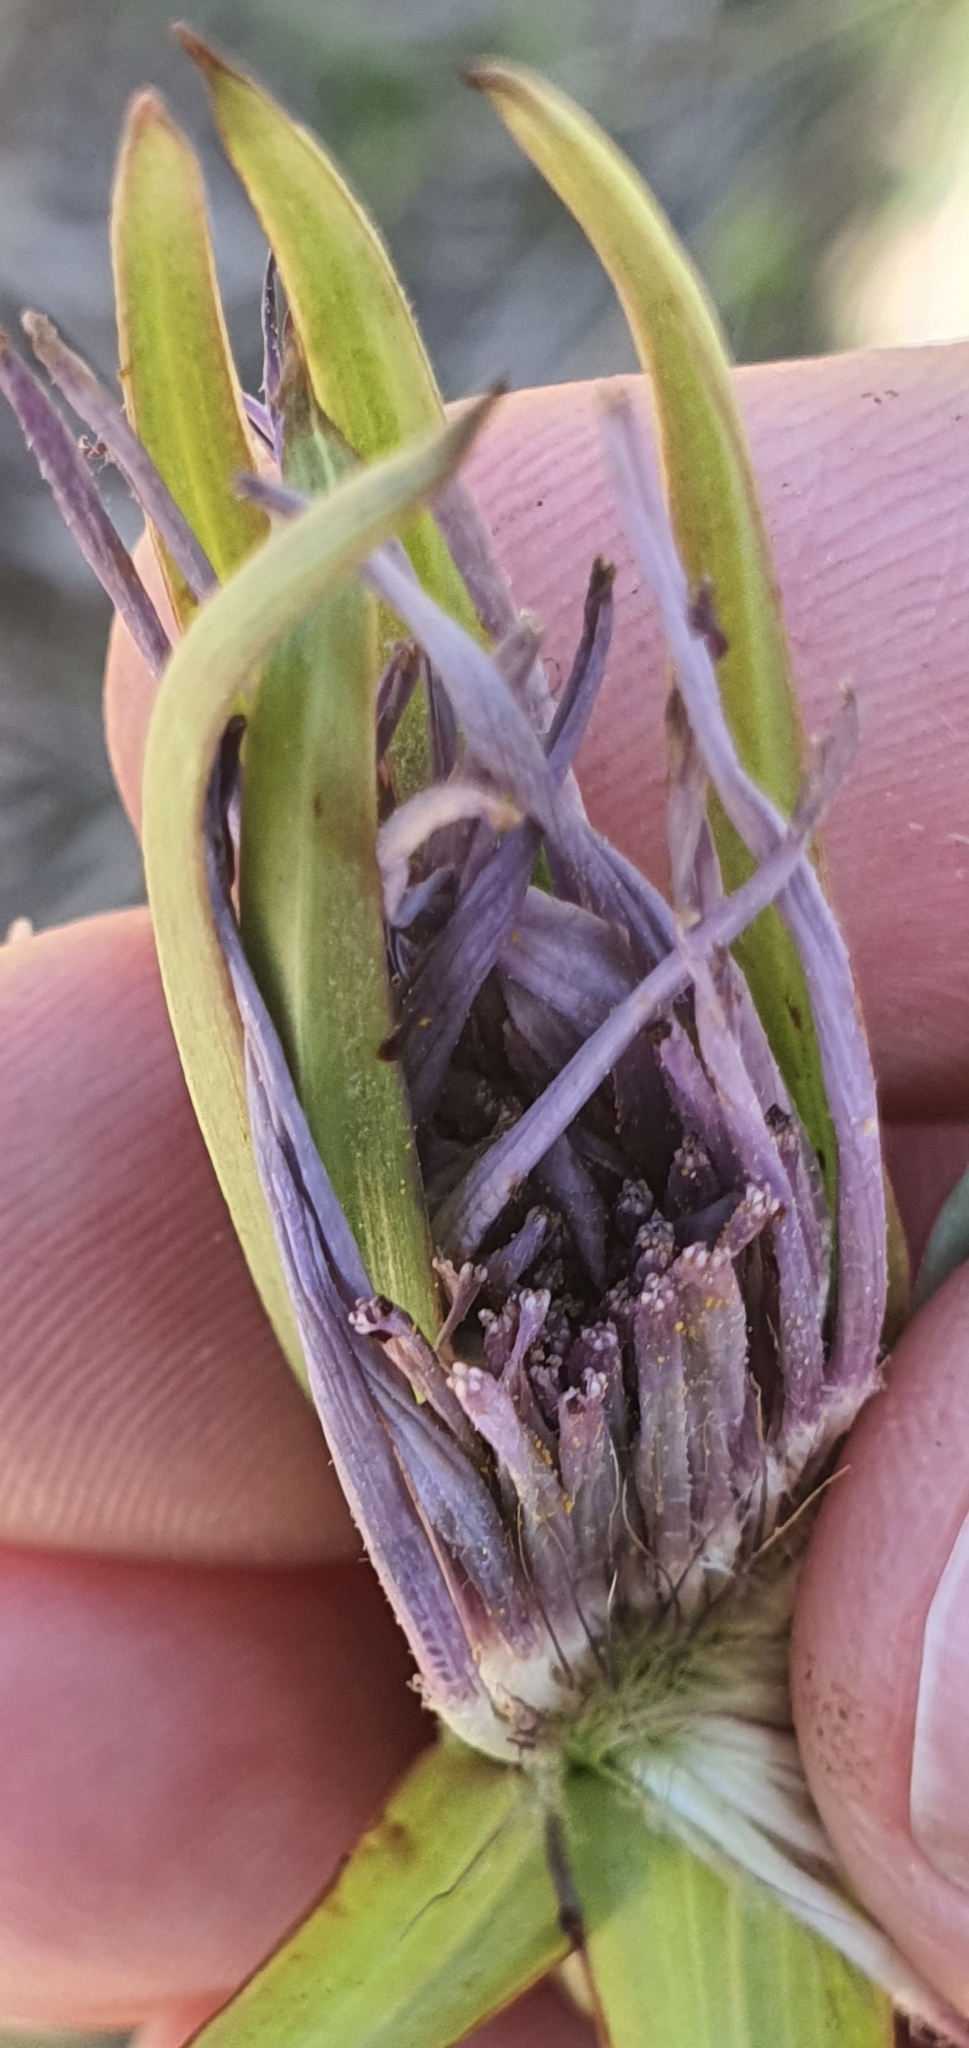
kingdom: Plantae
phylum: Tracheophyta
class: Magnoliopsida
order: Asterales
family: Asteraceae
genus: Tragopogon
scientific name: Tragopogon porrifolius
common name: Salsify
